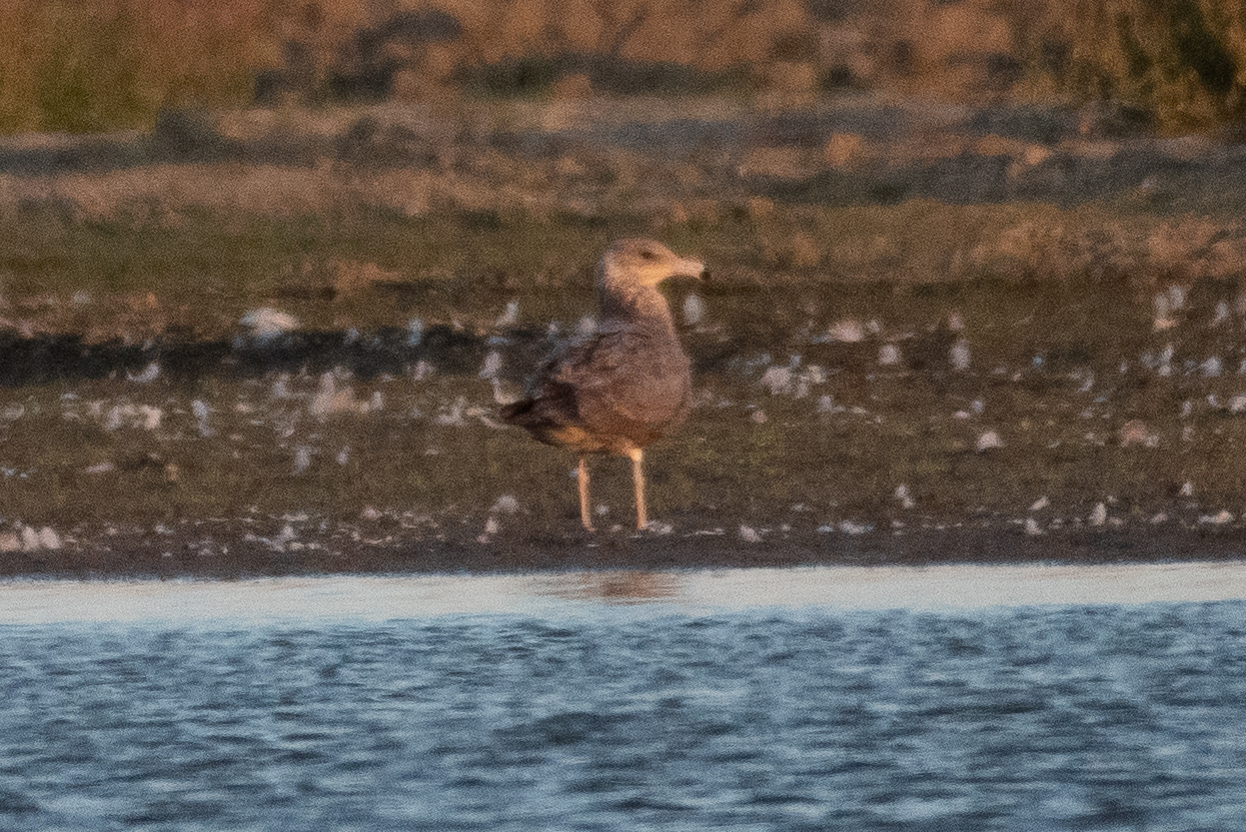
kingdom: Animalia
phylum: Chordata
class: Aves
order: Charadriiformes
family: Laridae
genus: Larus
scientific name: Larus californicus
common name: California gull
